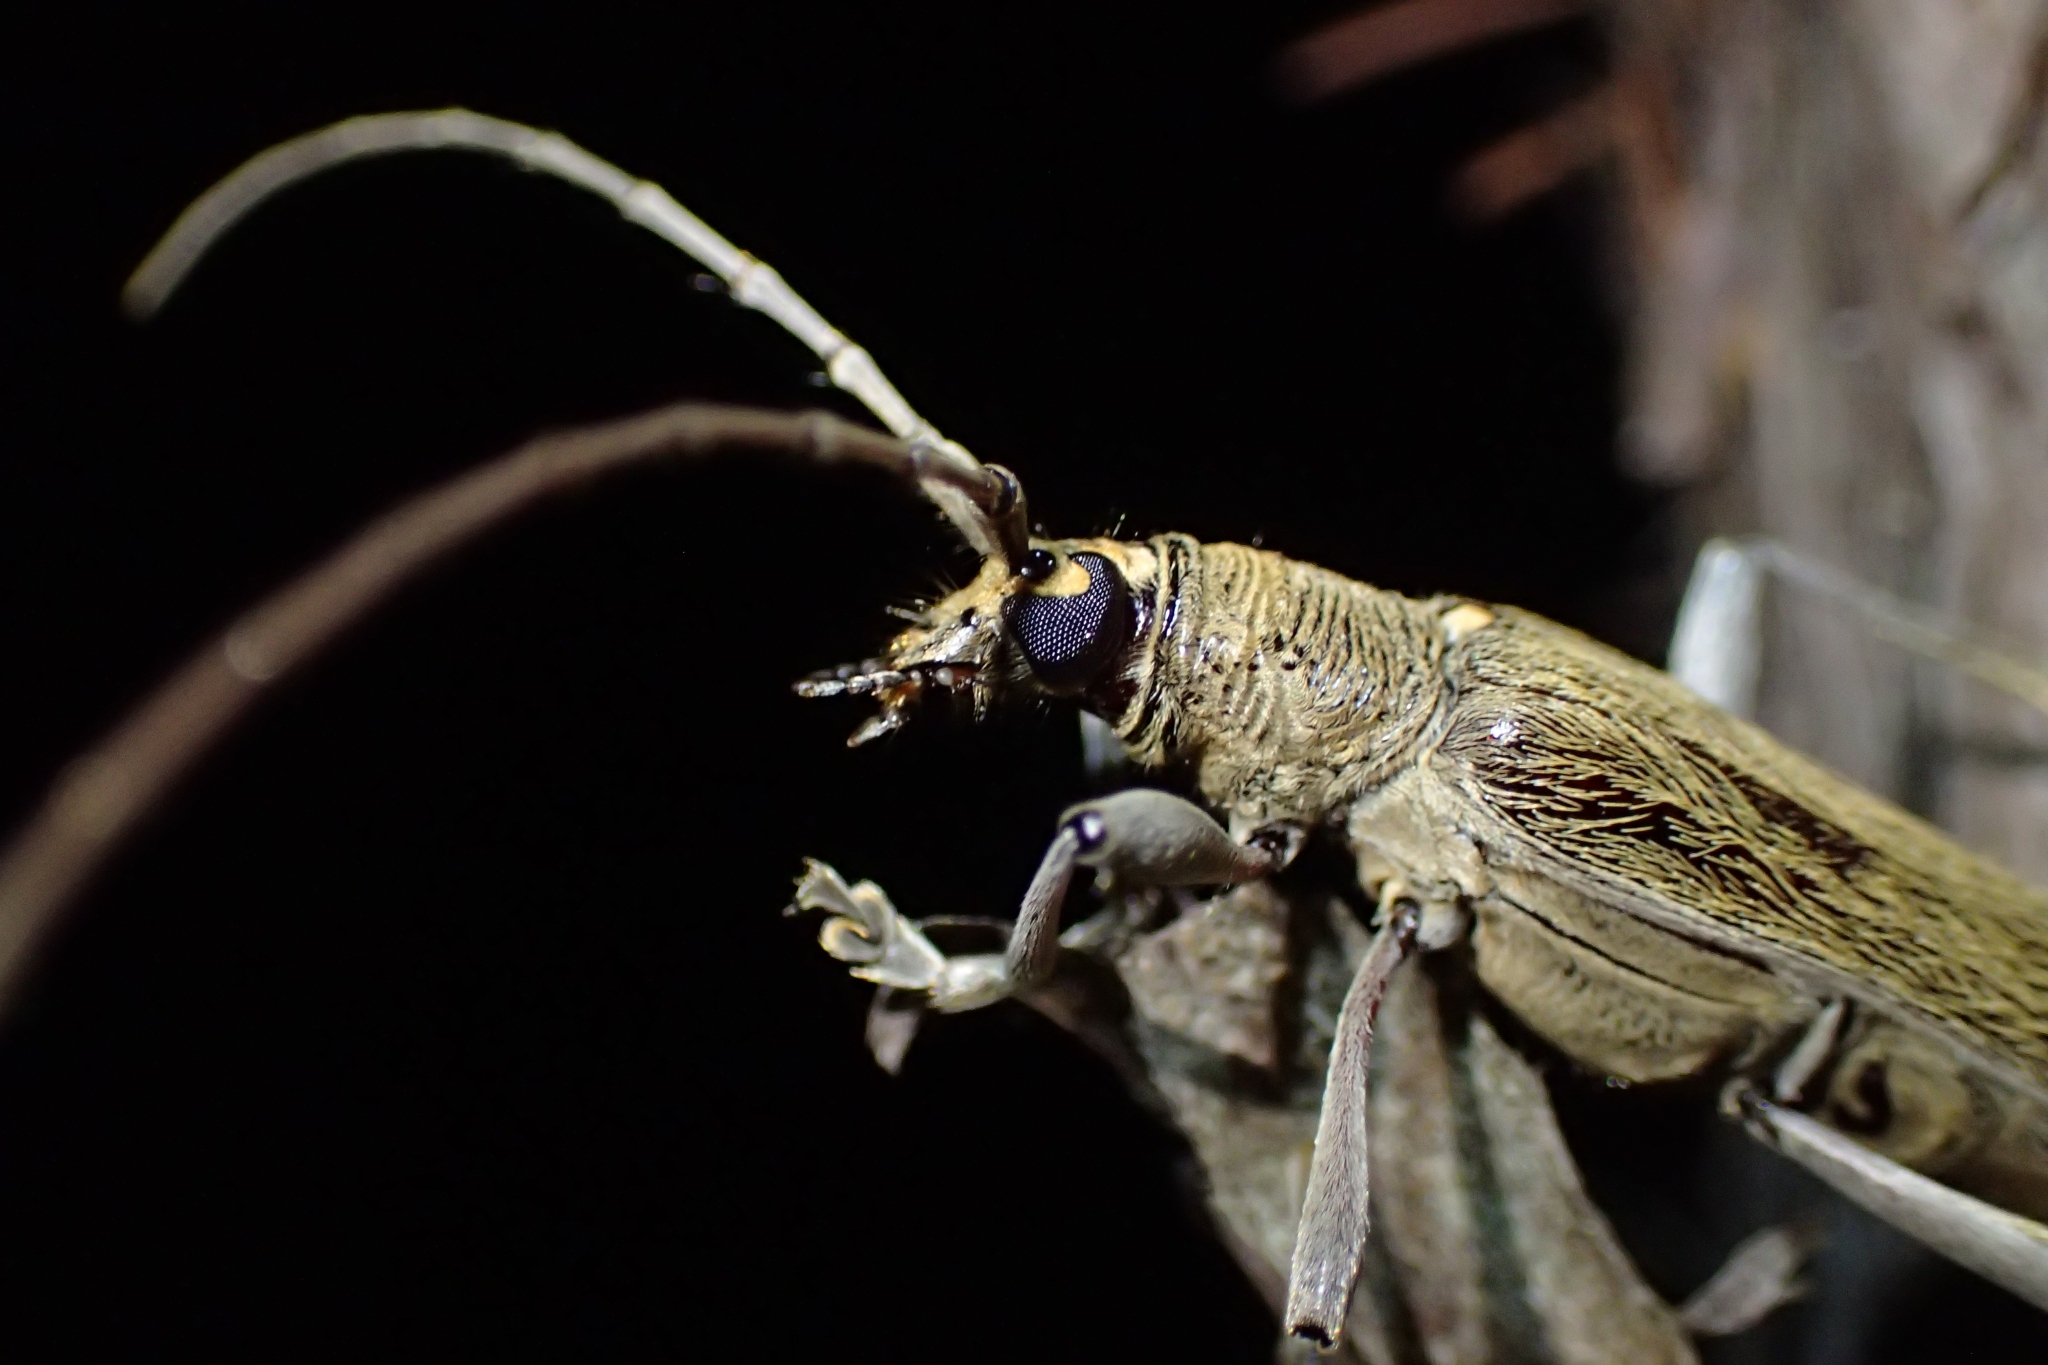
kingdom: Animalia
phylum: Arthropoda
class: Insecta
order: Coleoptera
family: Cerambycidae
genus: Oemona
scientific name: Oemona hirta
